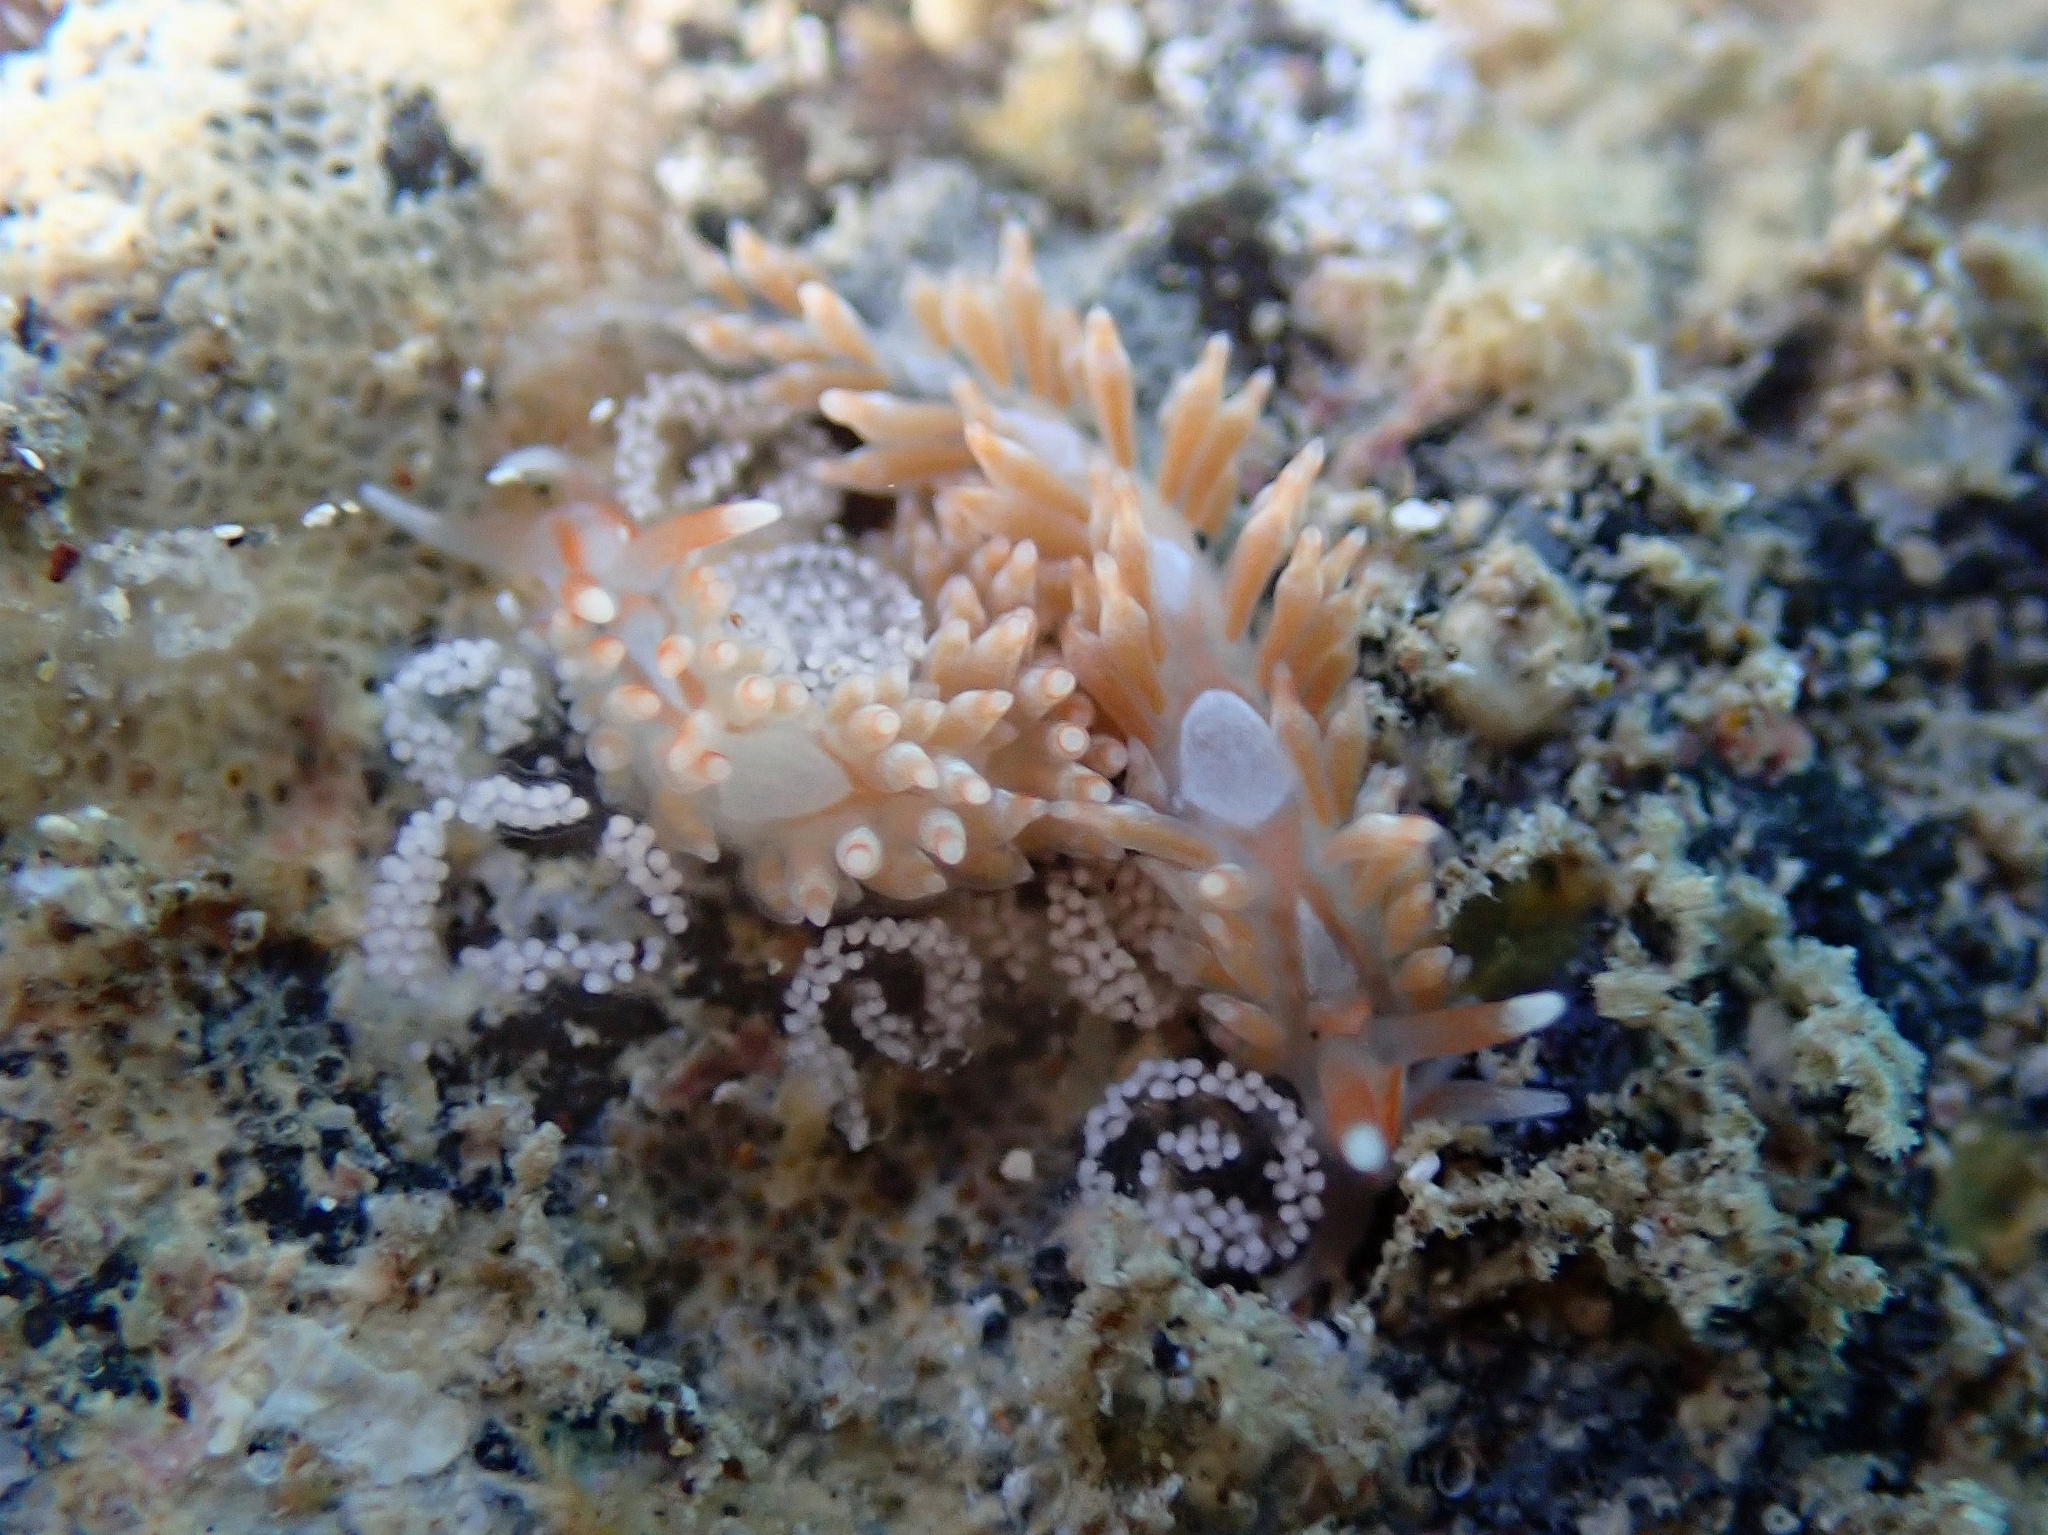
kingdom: Animalia
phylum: Mollusca
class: Gastropoda
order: Nudibranchia
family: Aeolidiidae
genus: Anteaeolidiella
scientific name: Anteaeolidiella lurana
